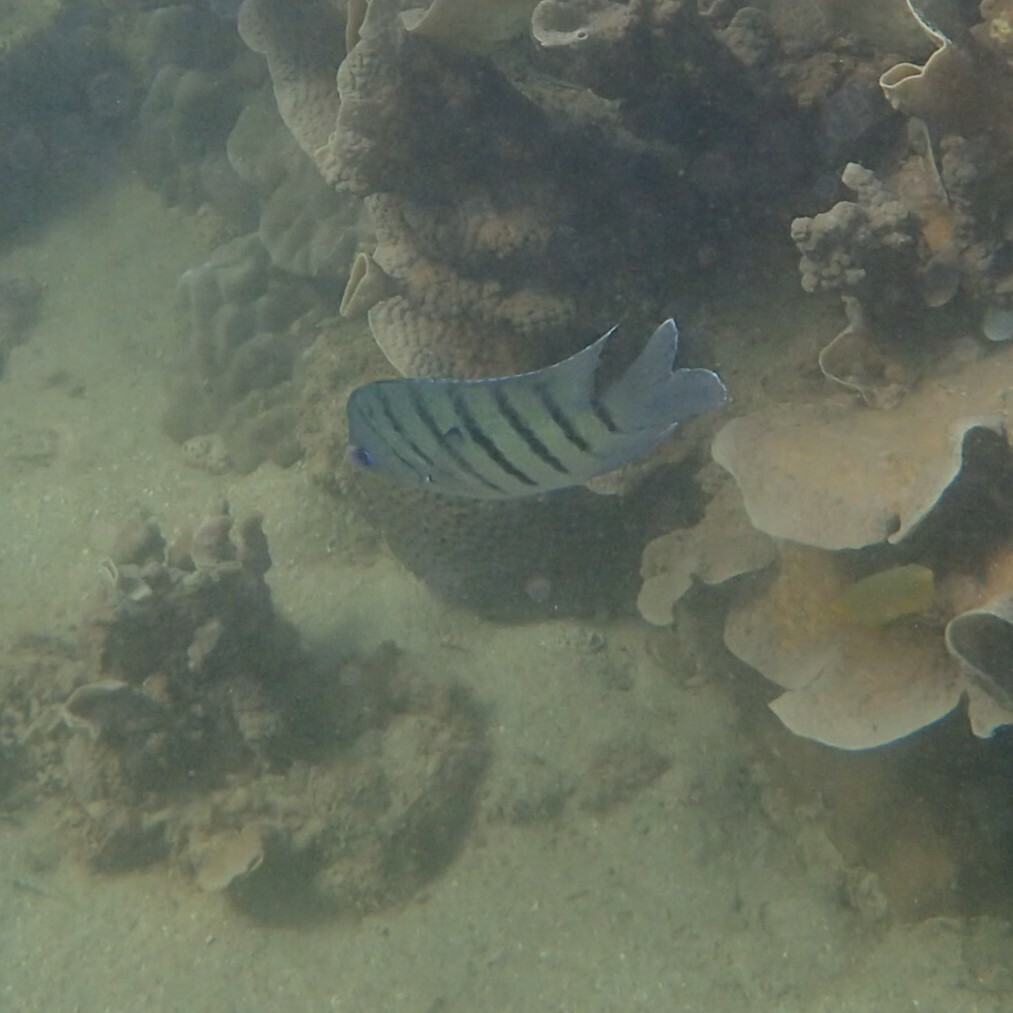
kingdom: Animalia
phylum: Chordata
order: Perciformes
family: Pomacentridae
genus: Abudefduf
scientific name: Abudefduf bengalensis
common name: Bengal sergeant
